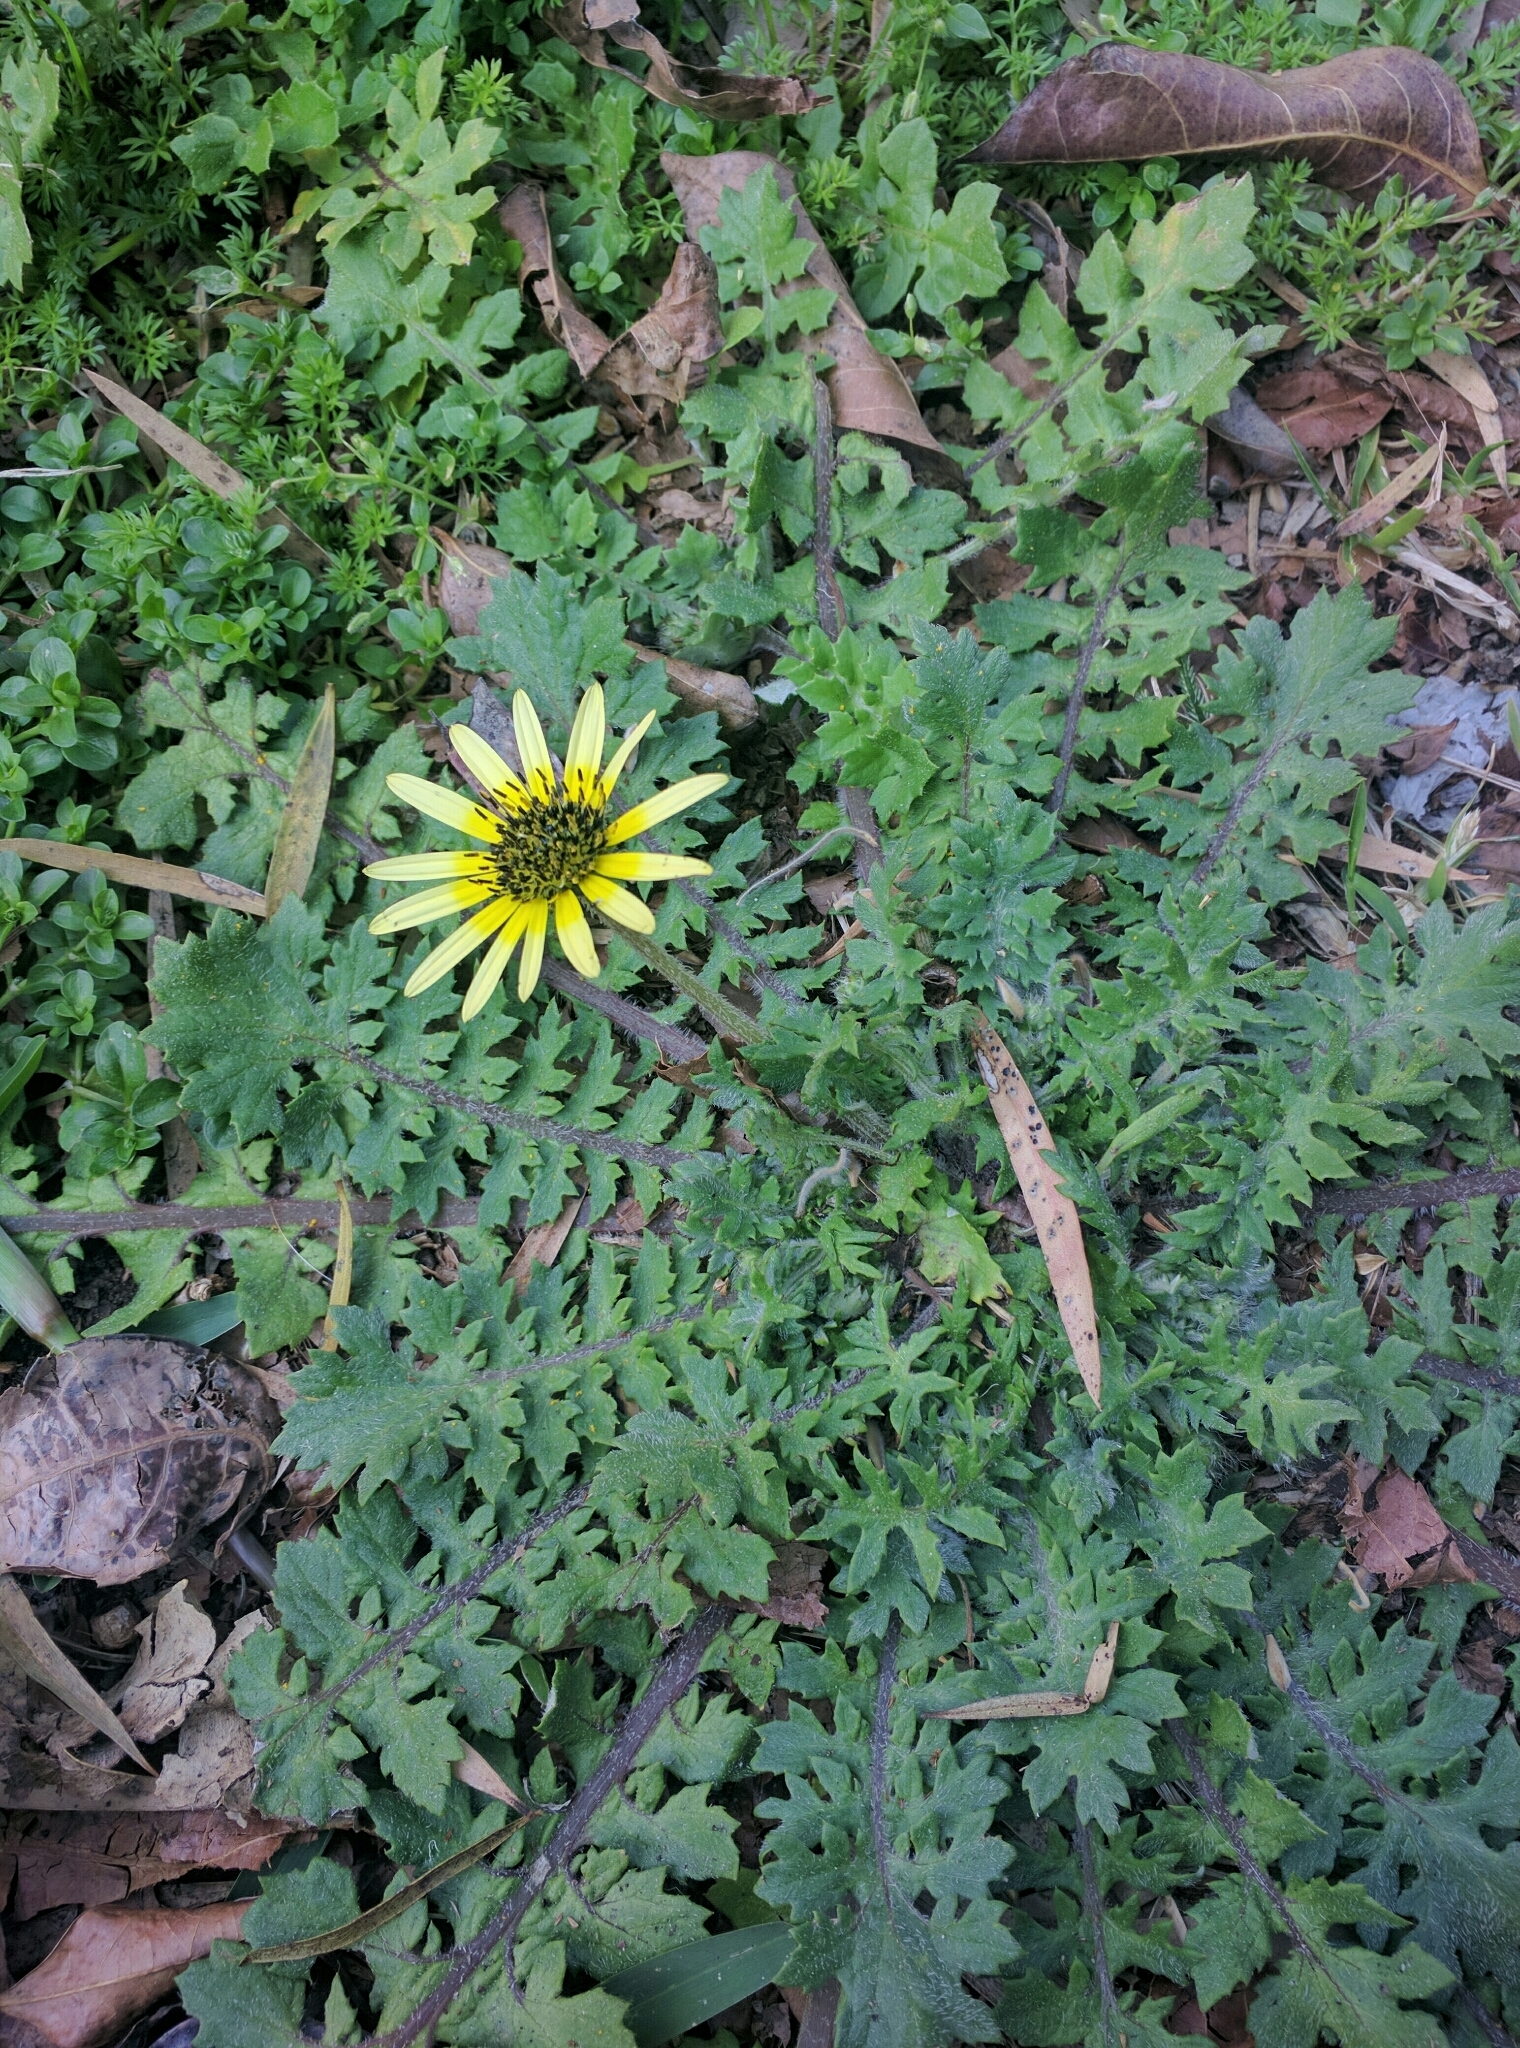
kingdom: Plantae
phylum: Tracheophyta
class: Magnoliopsida
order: Asterales
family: Asteraceae
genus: Arctotheca
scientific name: Arctotheca calendula
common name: Capeweed
